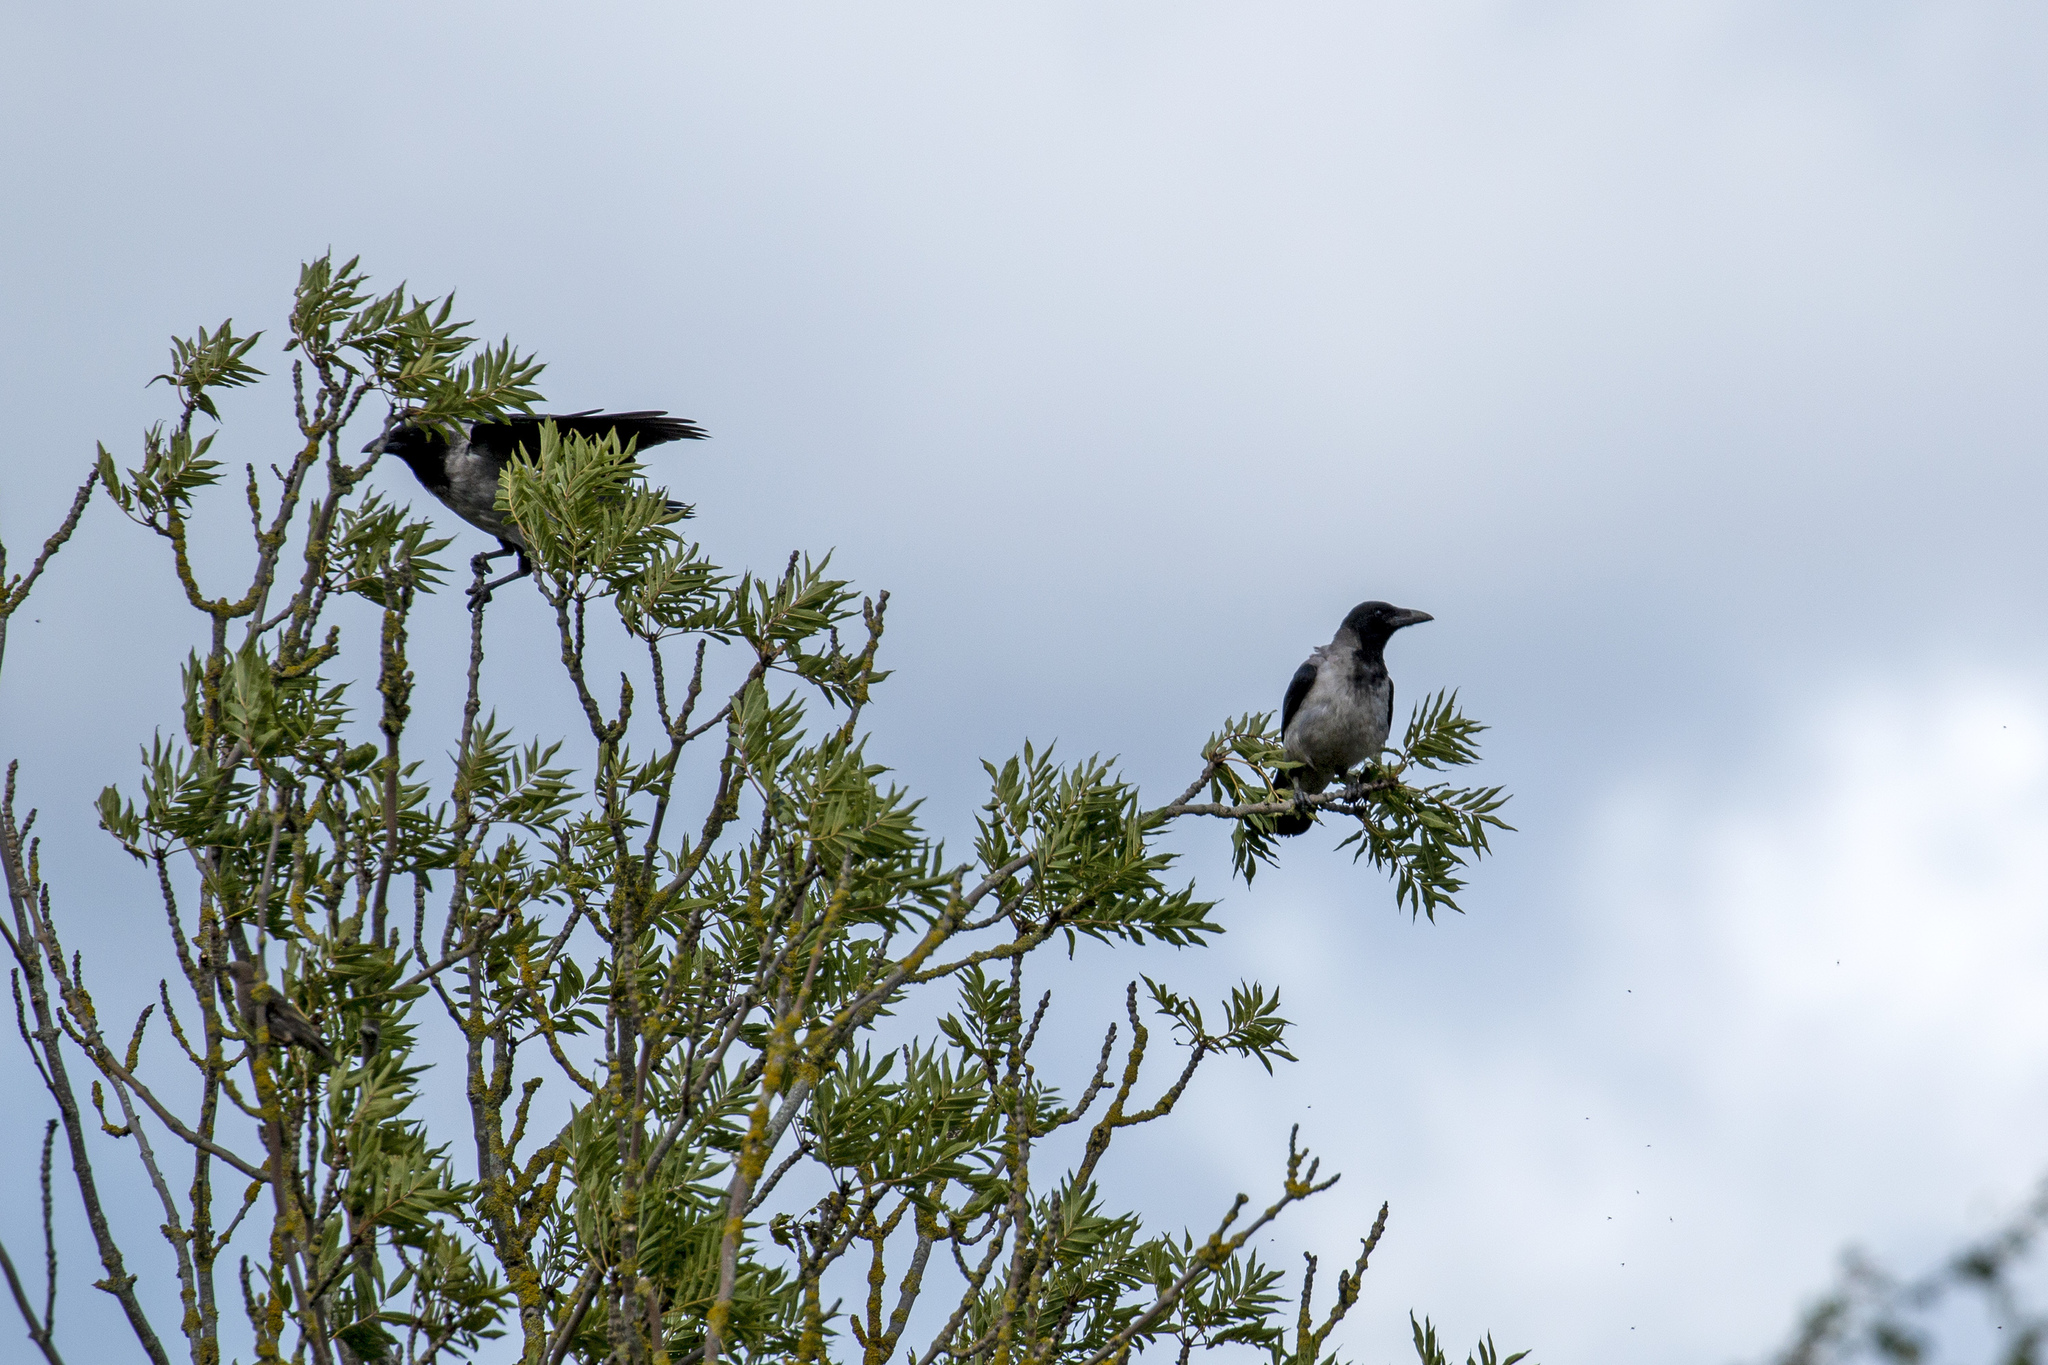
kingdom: Animalia
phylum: Chordata
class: Aves
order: Passeriformes
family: Corvidae
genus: Corvus
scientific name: Corvus cornix
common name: Hooded crow
